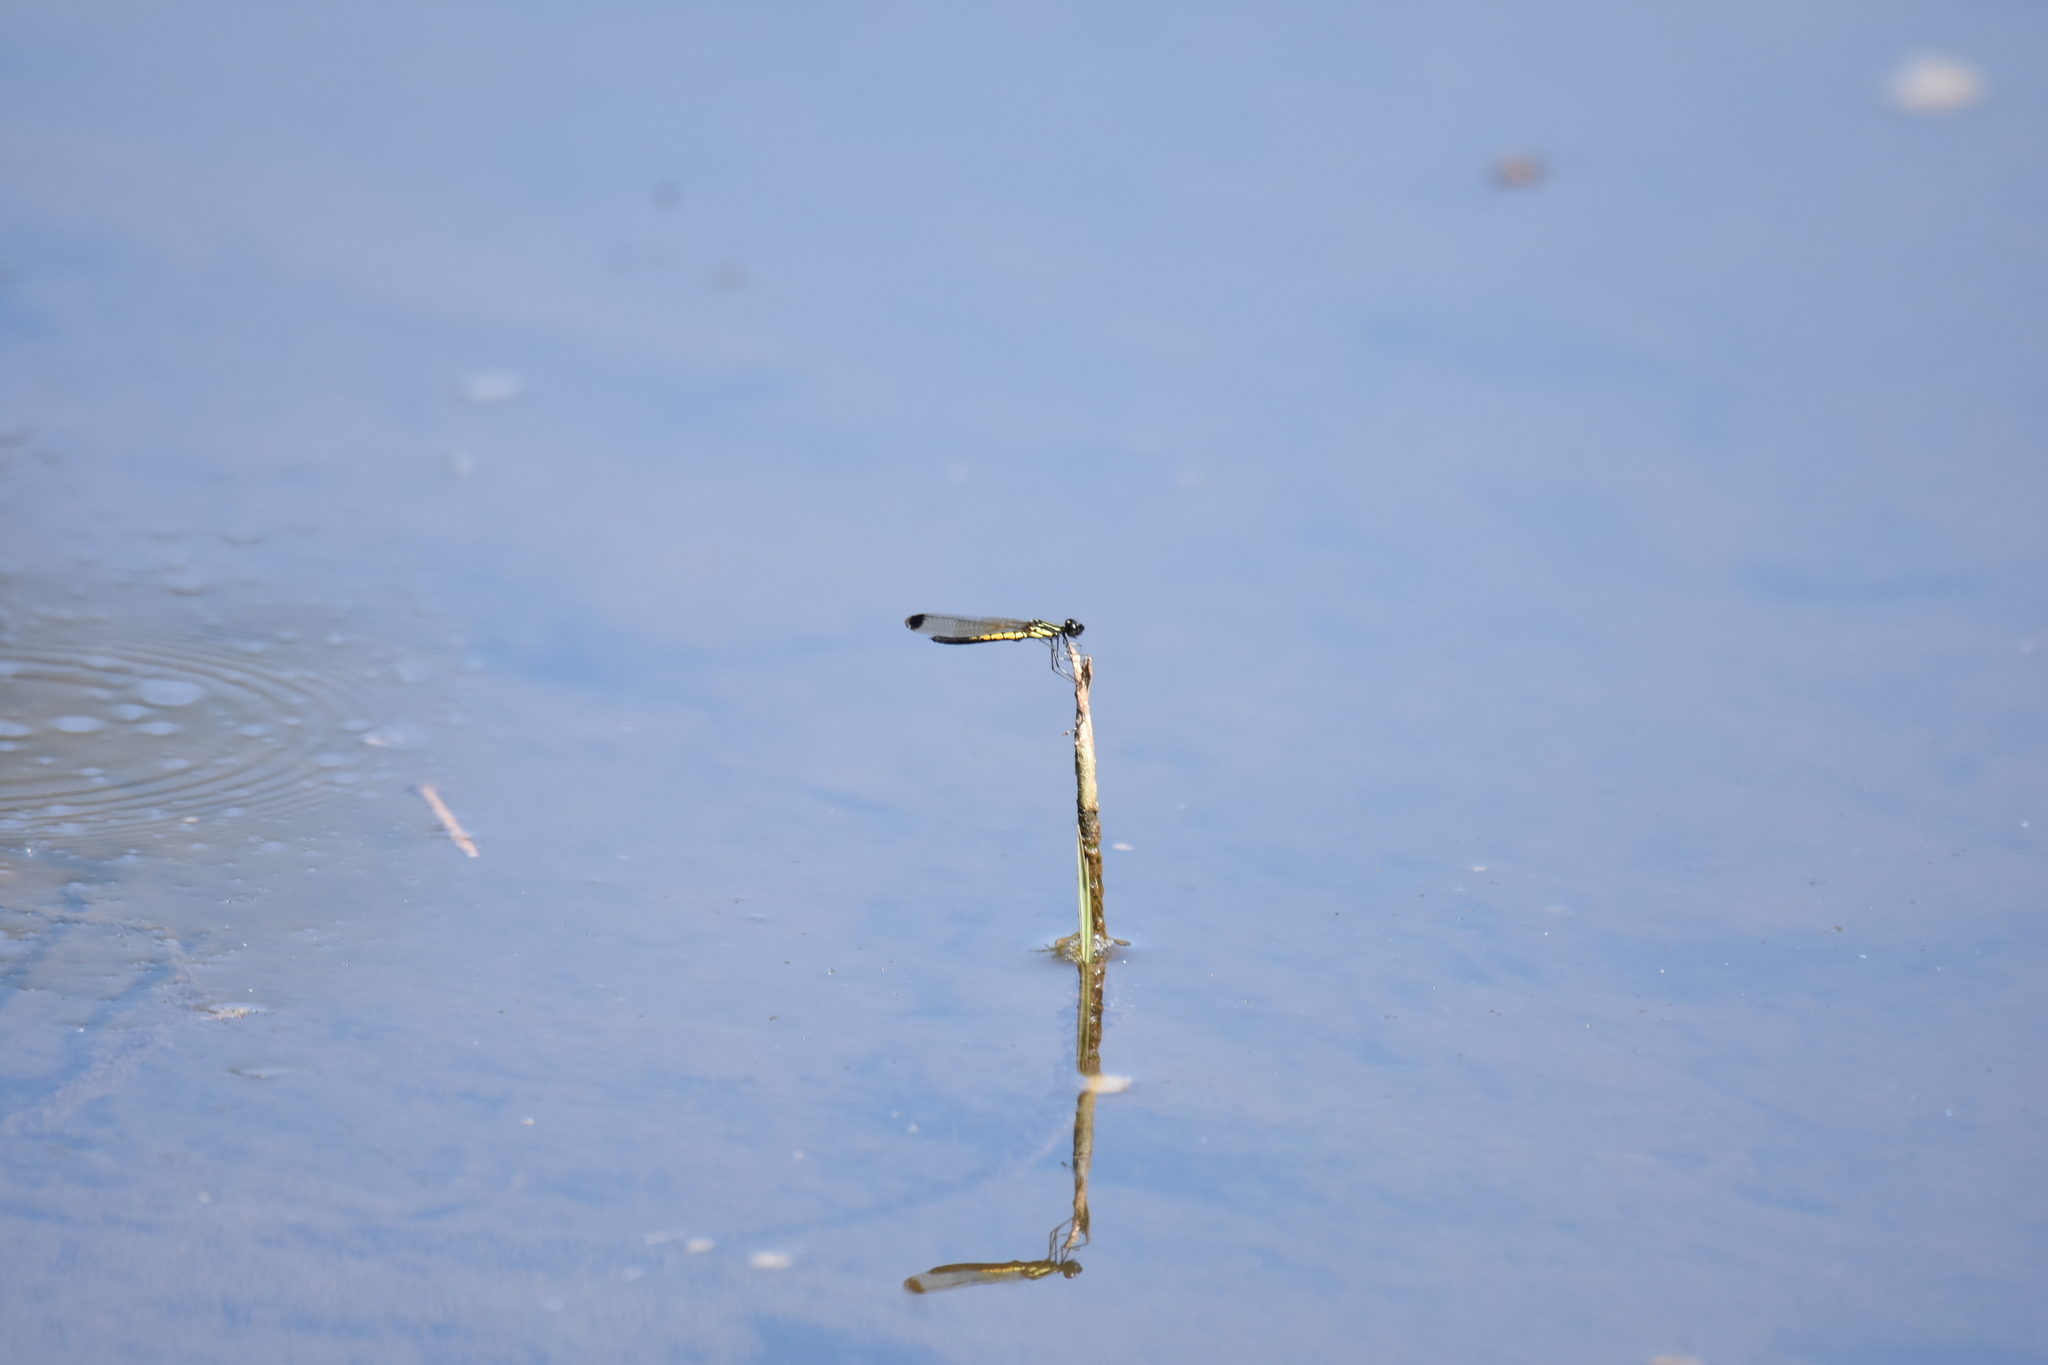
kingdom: Animalia
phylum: Arthropoda
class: Insecta
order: Odonata
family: Chlorocyphidae
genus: Libellago
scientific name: Libellago indica
